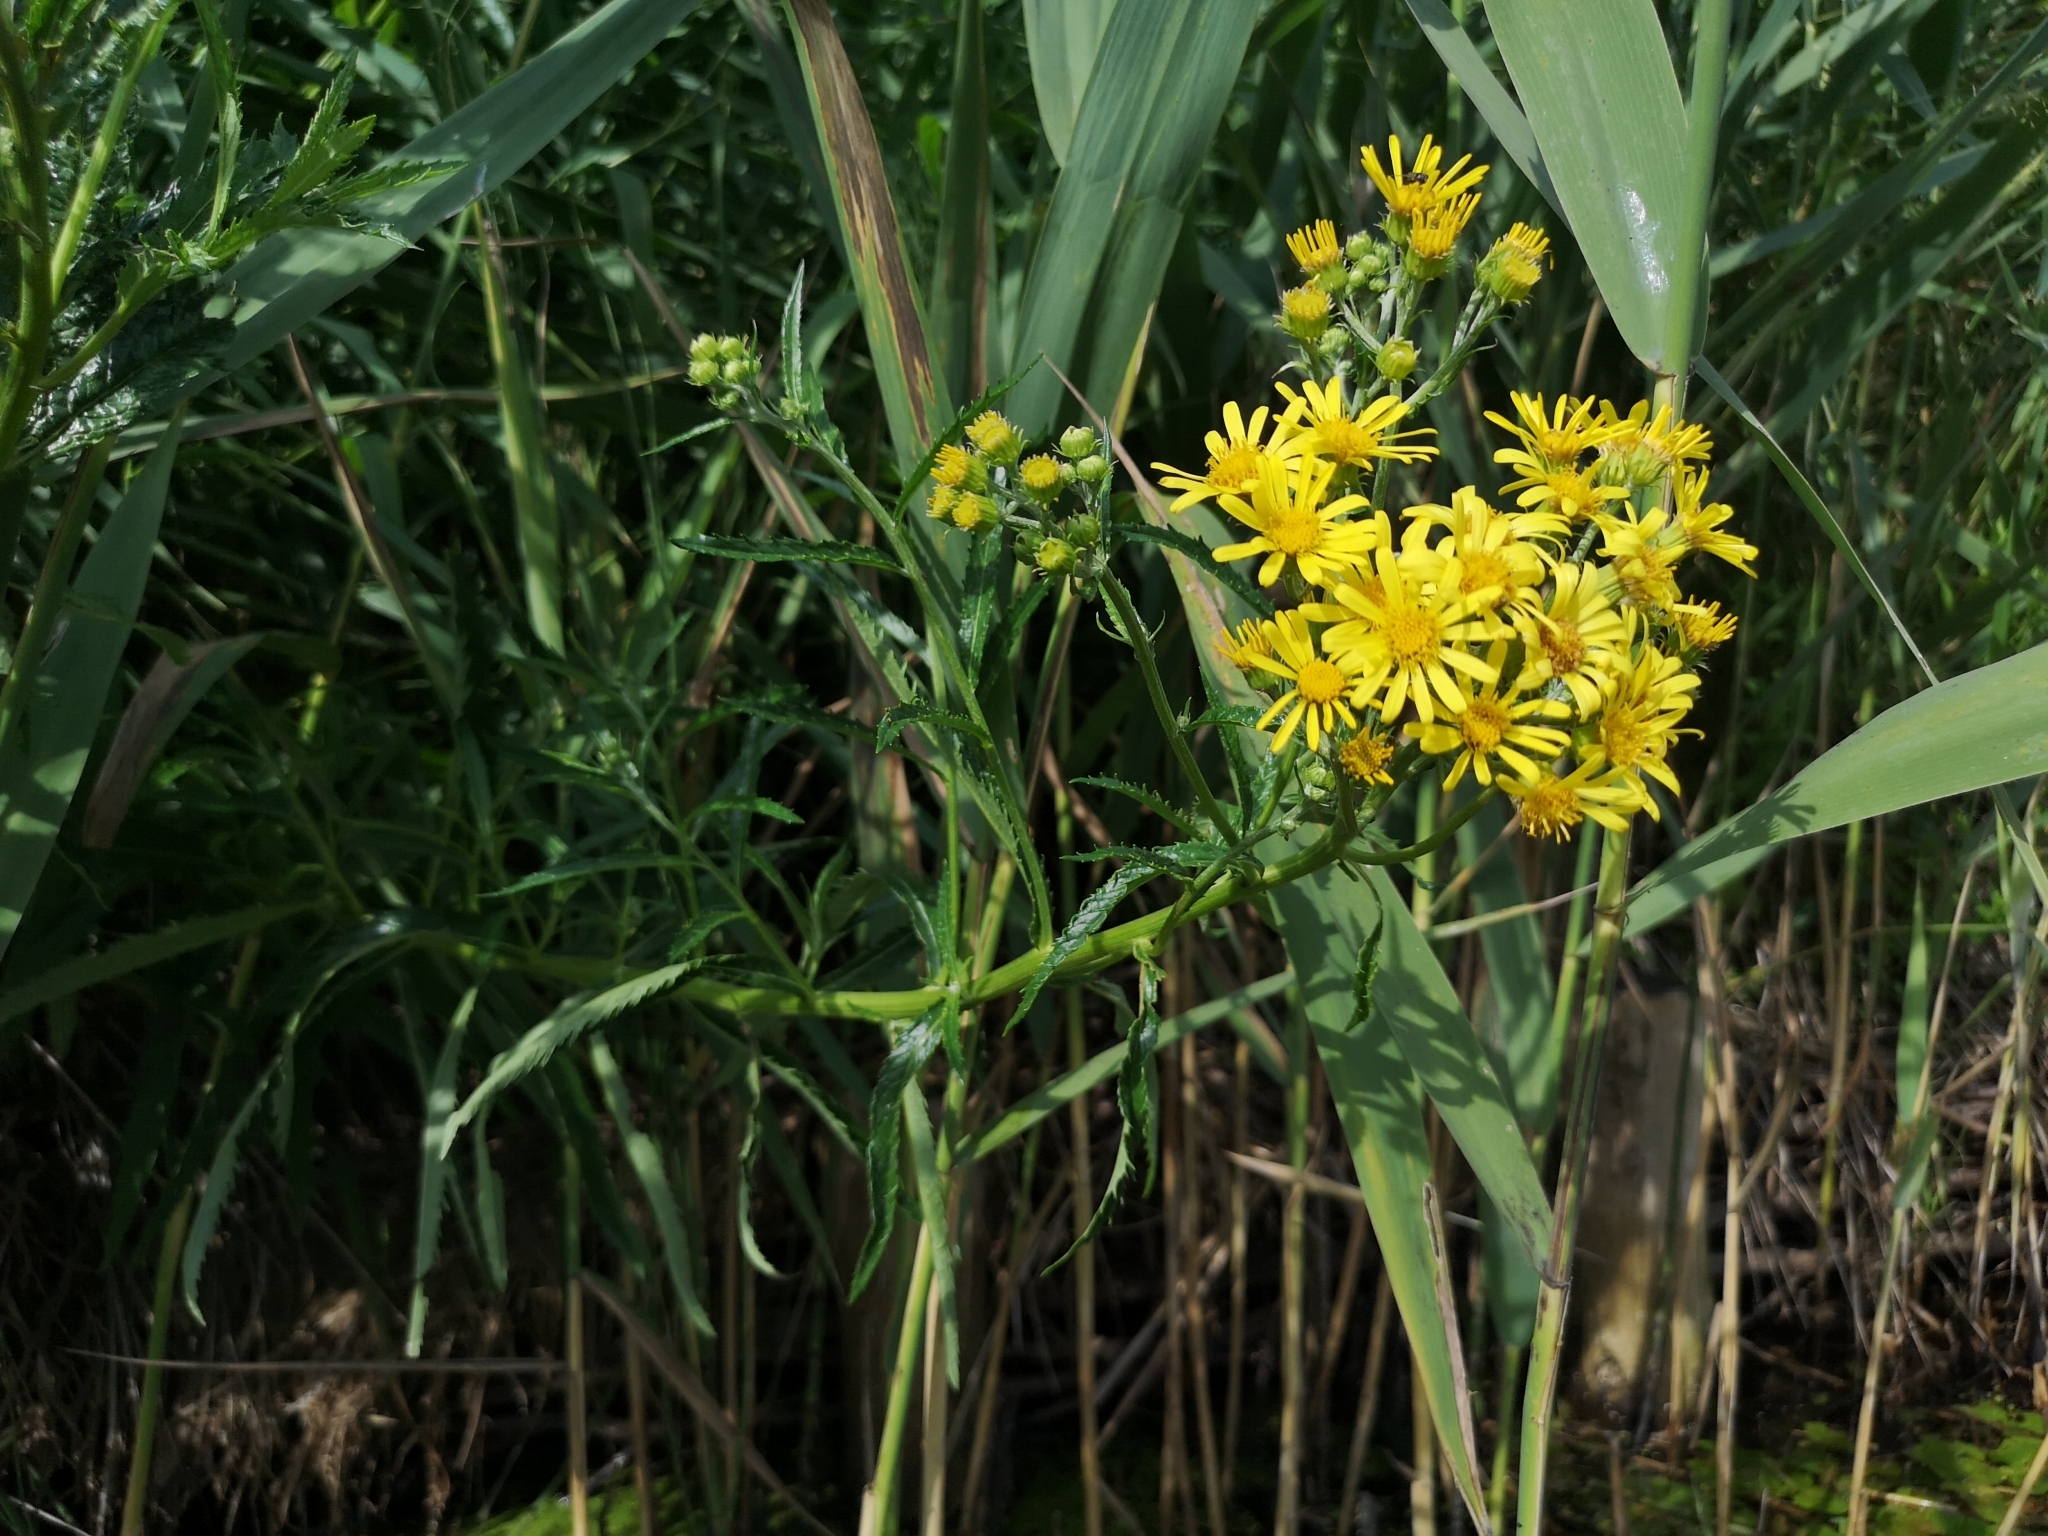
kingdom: Plantae
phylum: Tracheophyta
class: Magnoliopsida
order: Asterales
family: Asteraceae
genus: Jacobaea
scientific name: Jacobaea paludosa
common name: Fen ragwort
